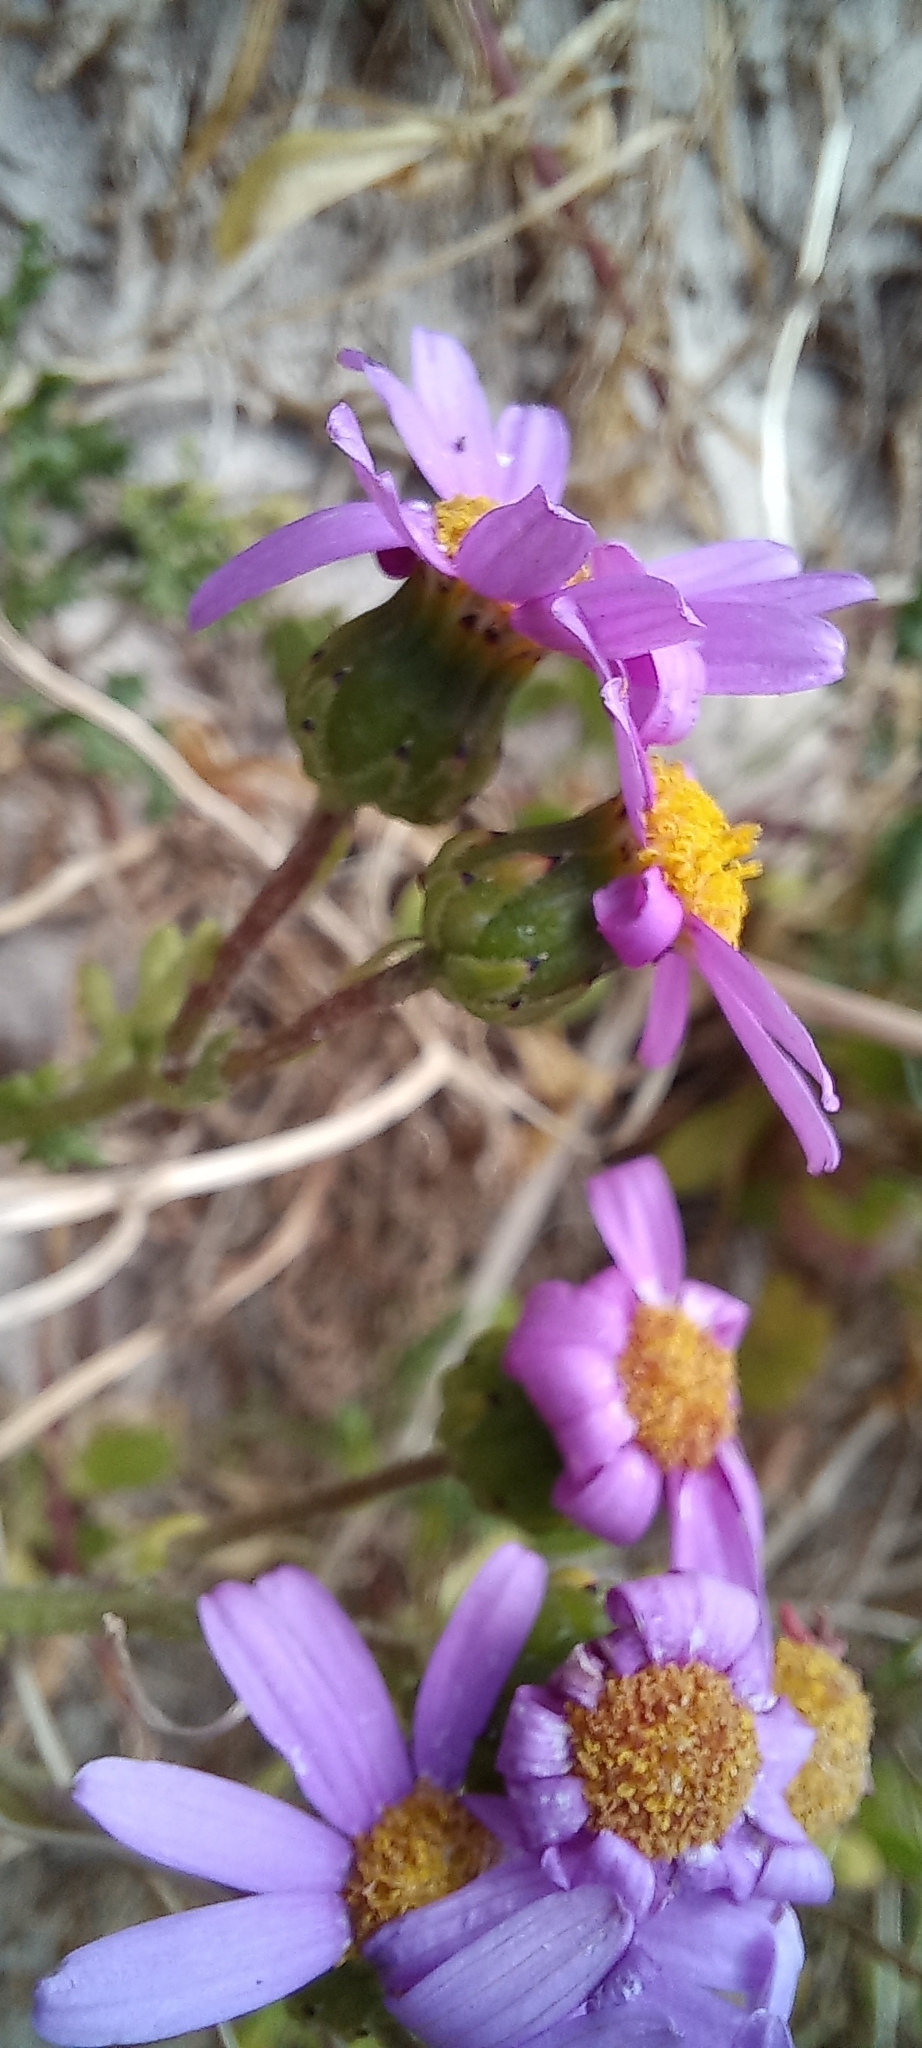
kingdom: Plantae
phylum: Tracheophyta
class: Magnoliopsida
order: Asterales
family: Asteraceae
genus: Senecio
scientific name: Senecio elegans
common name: Purple groundsel
